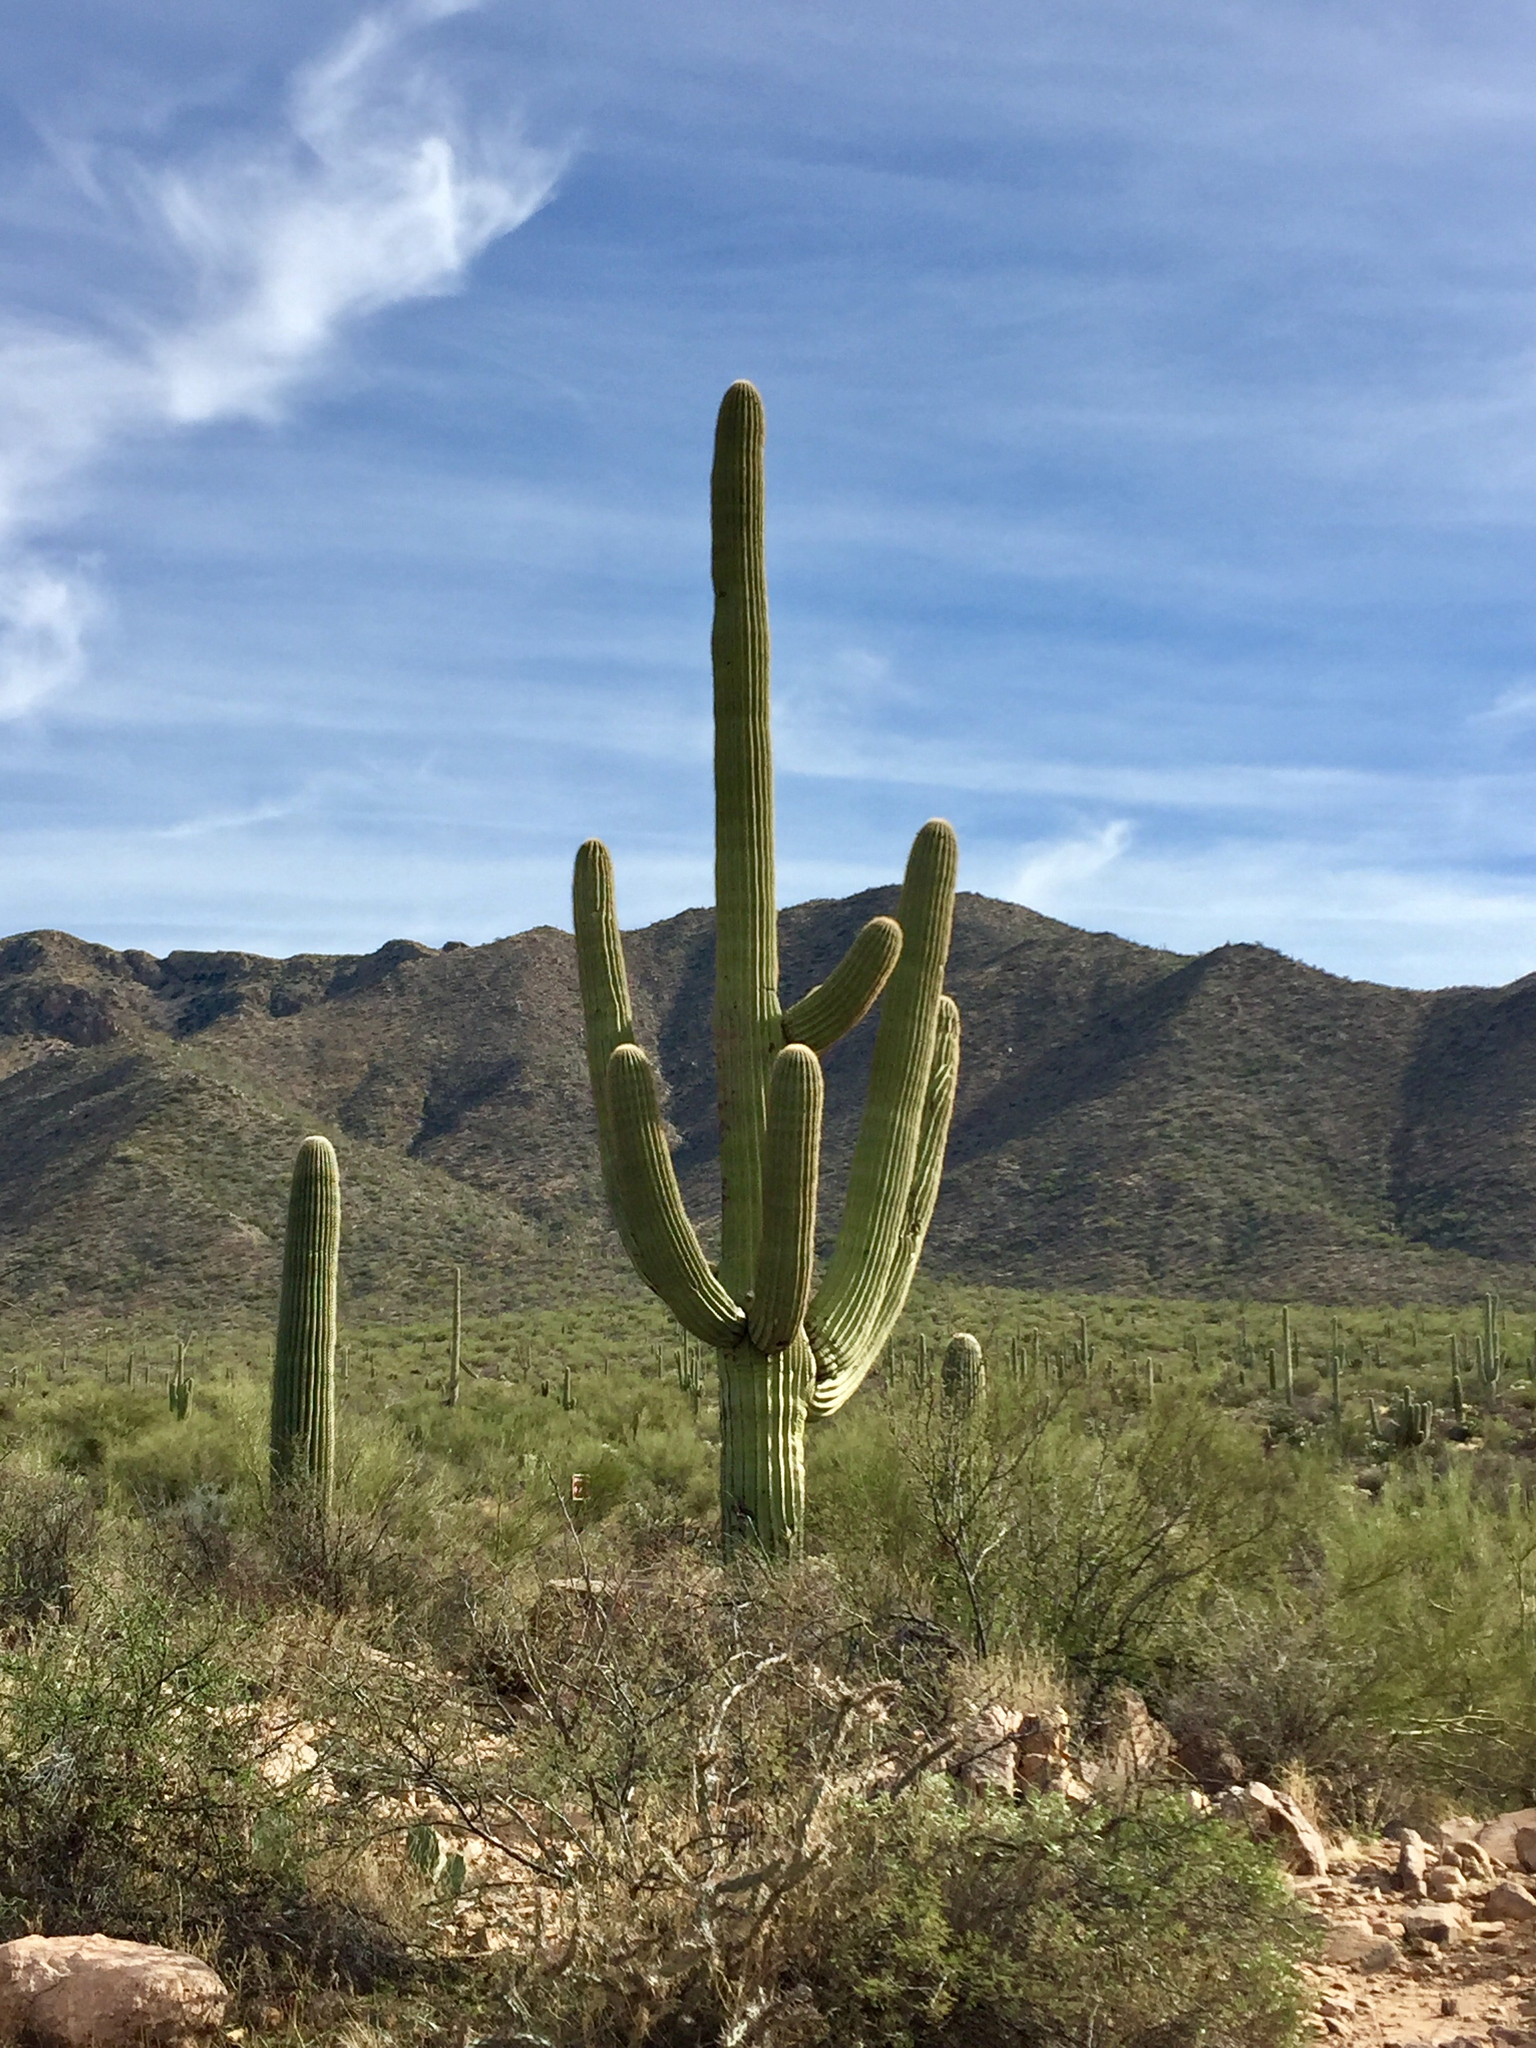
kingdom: Plantae
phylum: Tracheophyta
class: Magnoliopsida
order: Caryophyllales
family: Cactaceae
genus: Carnegiea
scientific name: Carnegiea gigantea
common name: Saguaro
